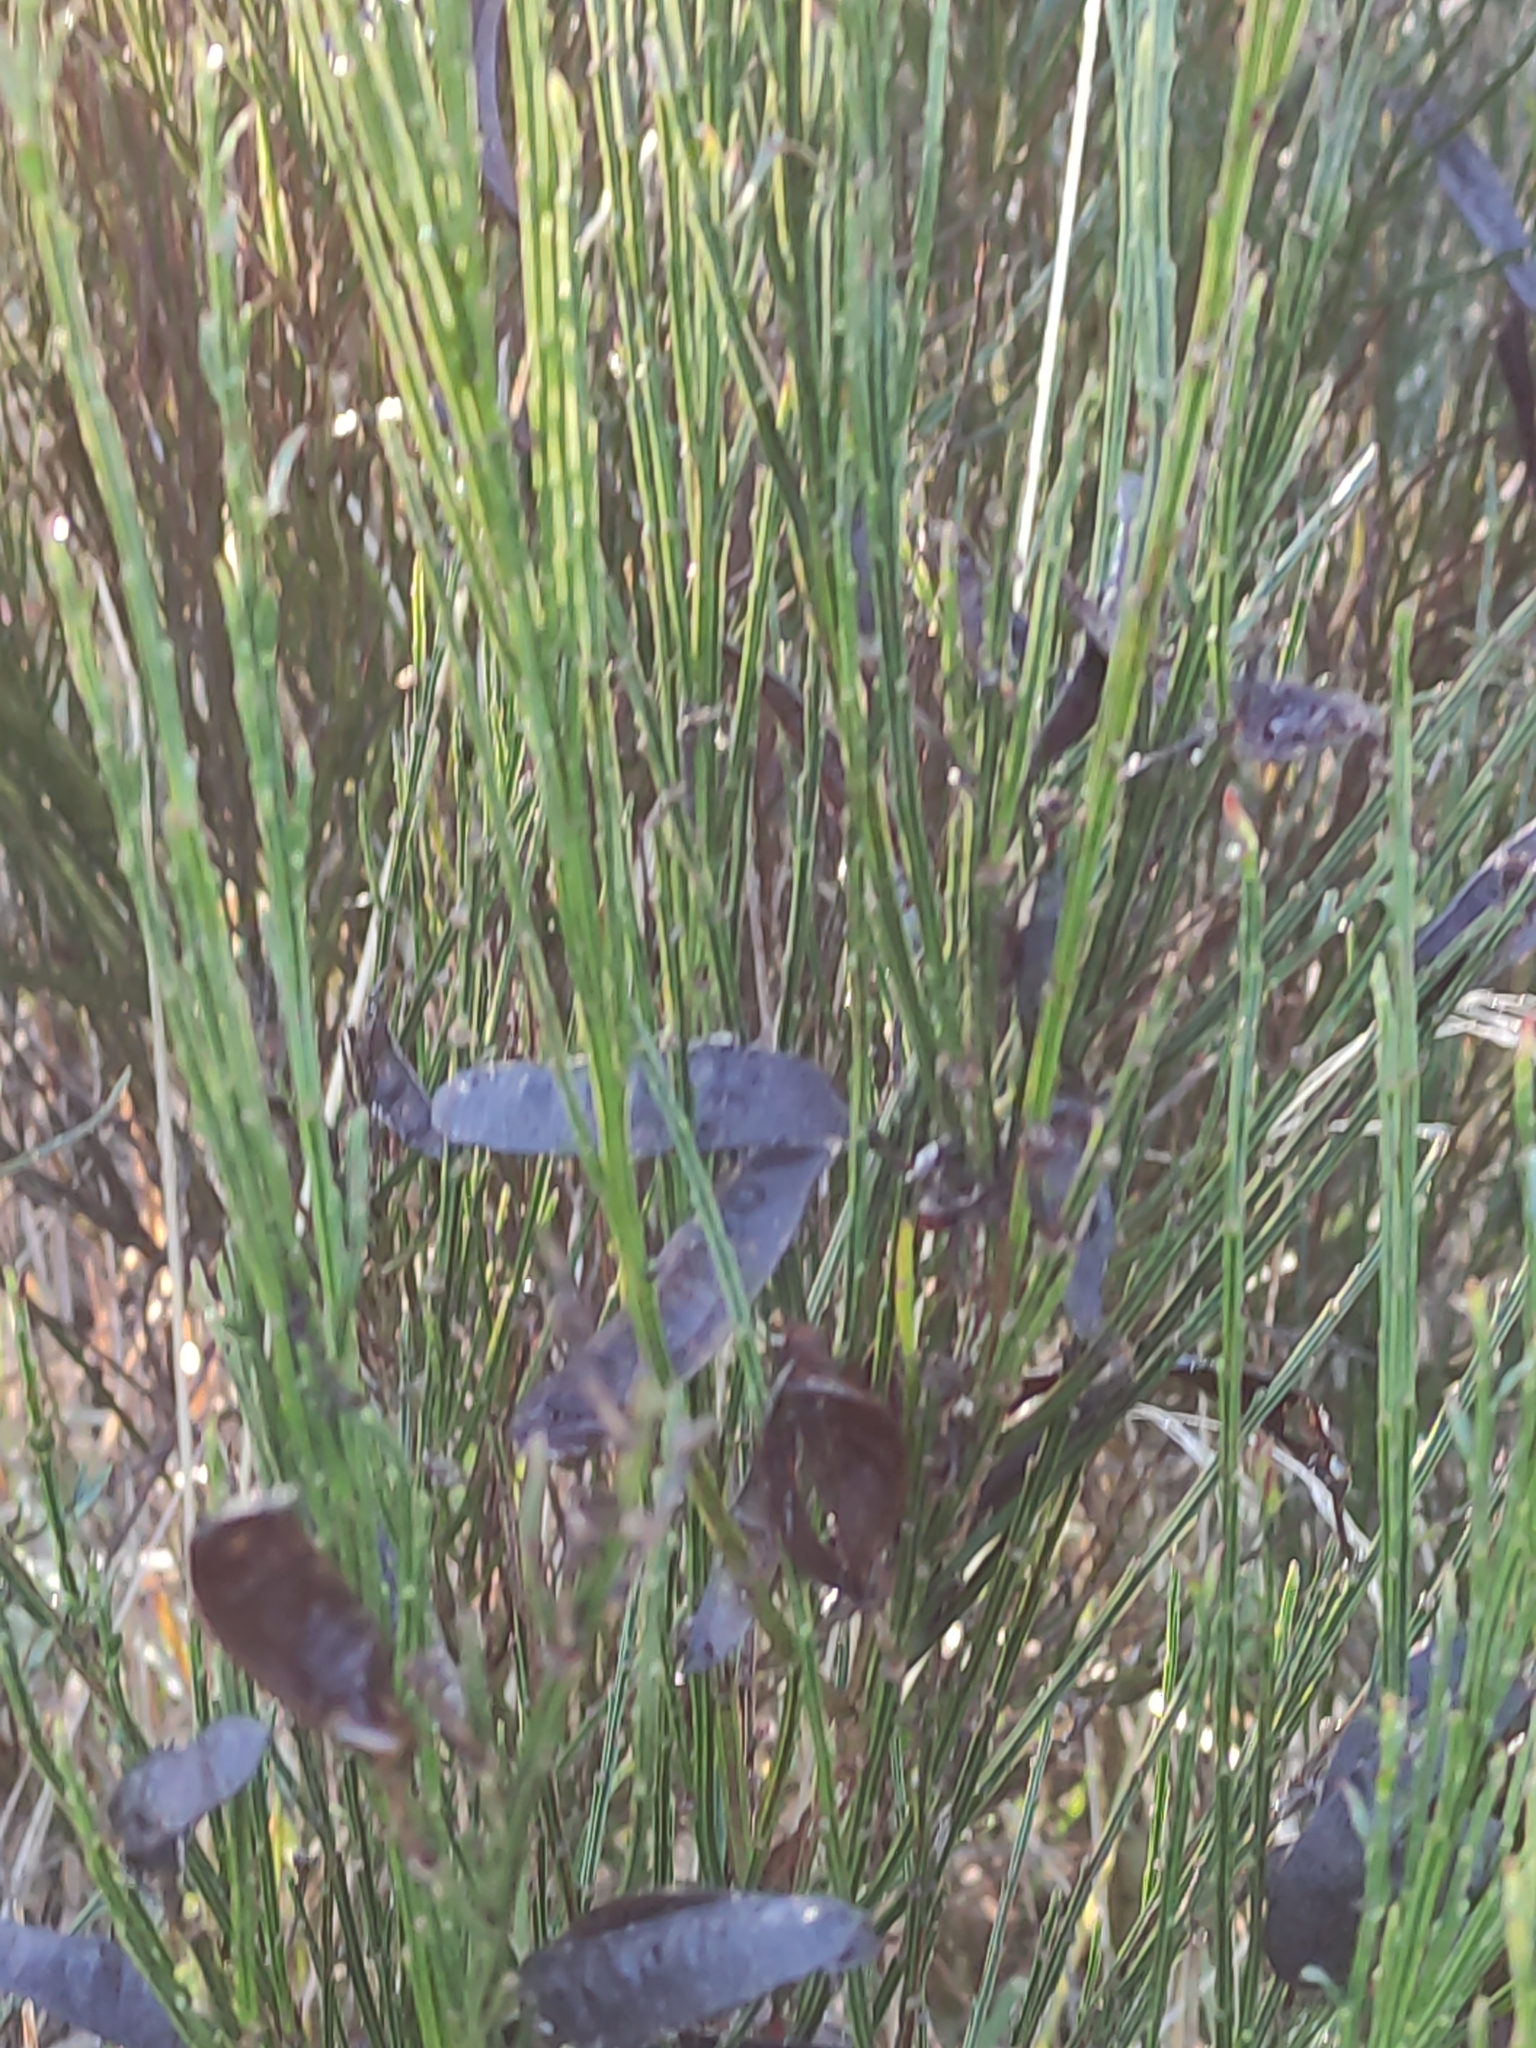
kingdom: Plantae
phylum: Tracheophyta
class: Magnoliopsida
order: Fabales
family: Fabaceae
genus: Cytisus
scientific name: Cytisus scoparius
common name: Scotch broom
